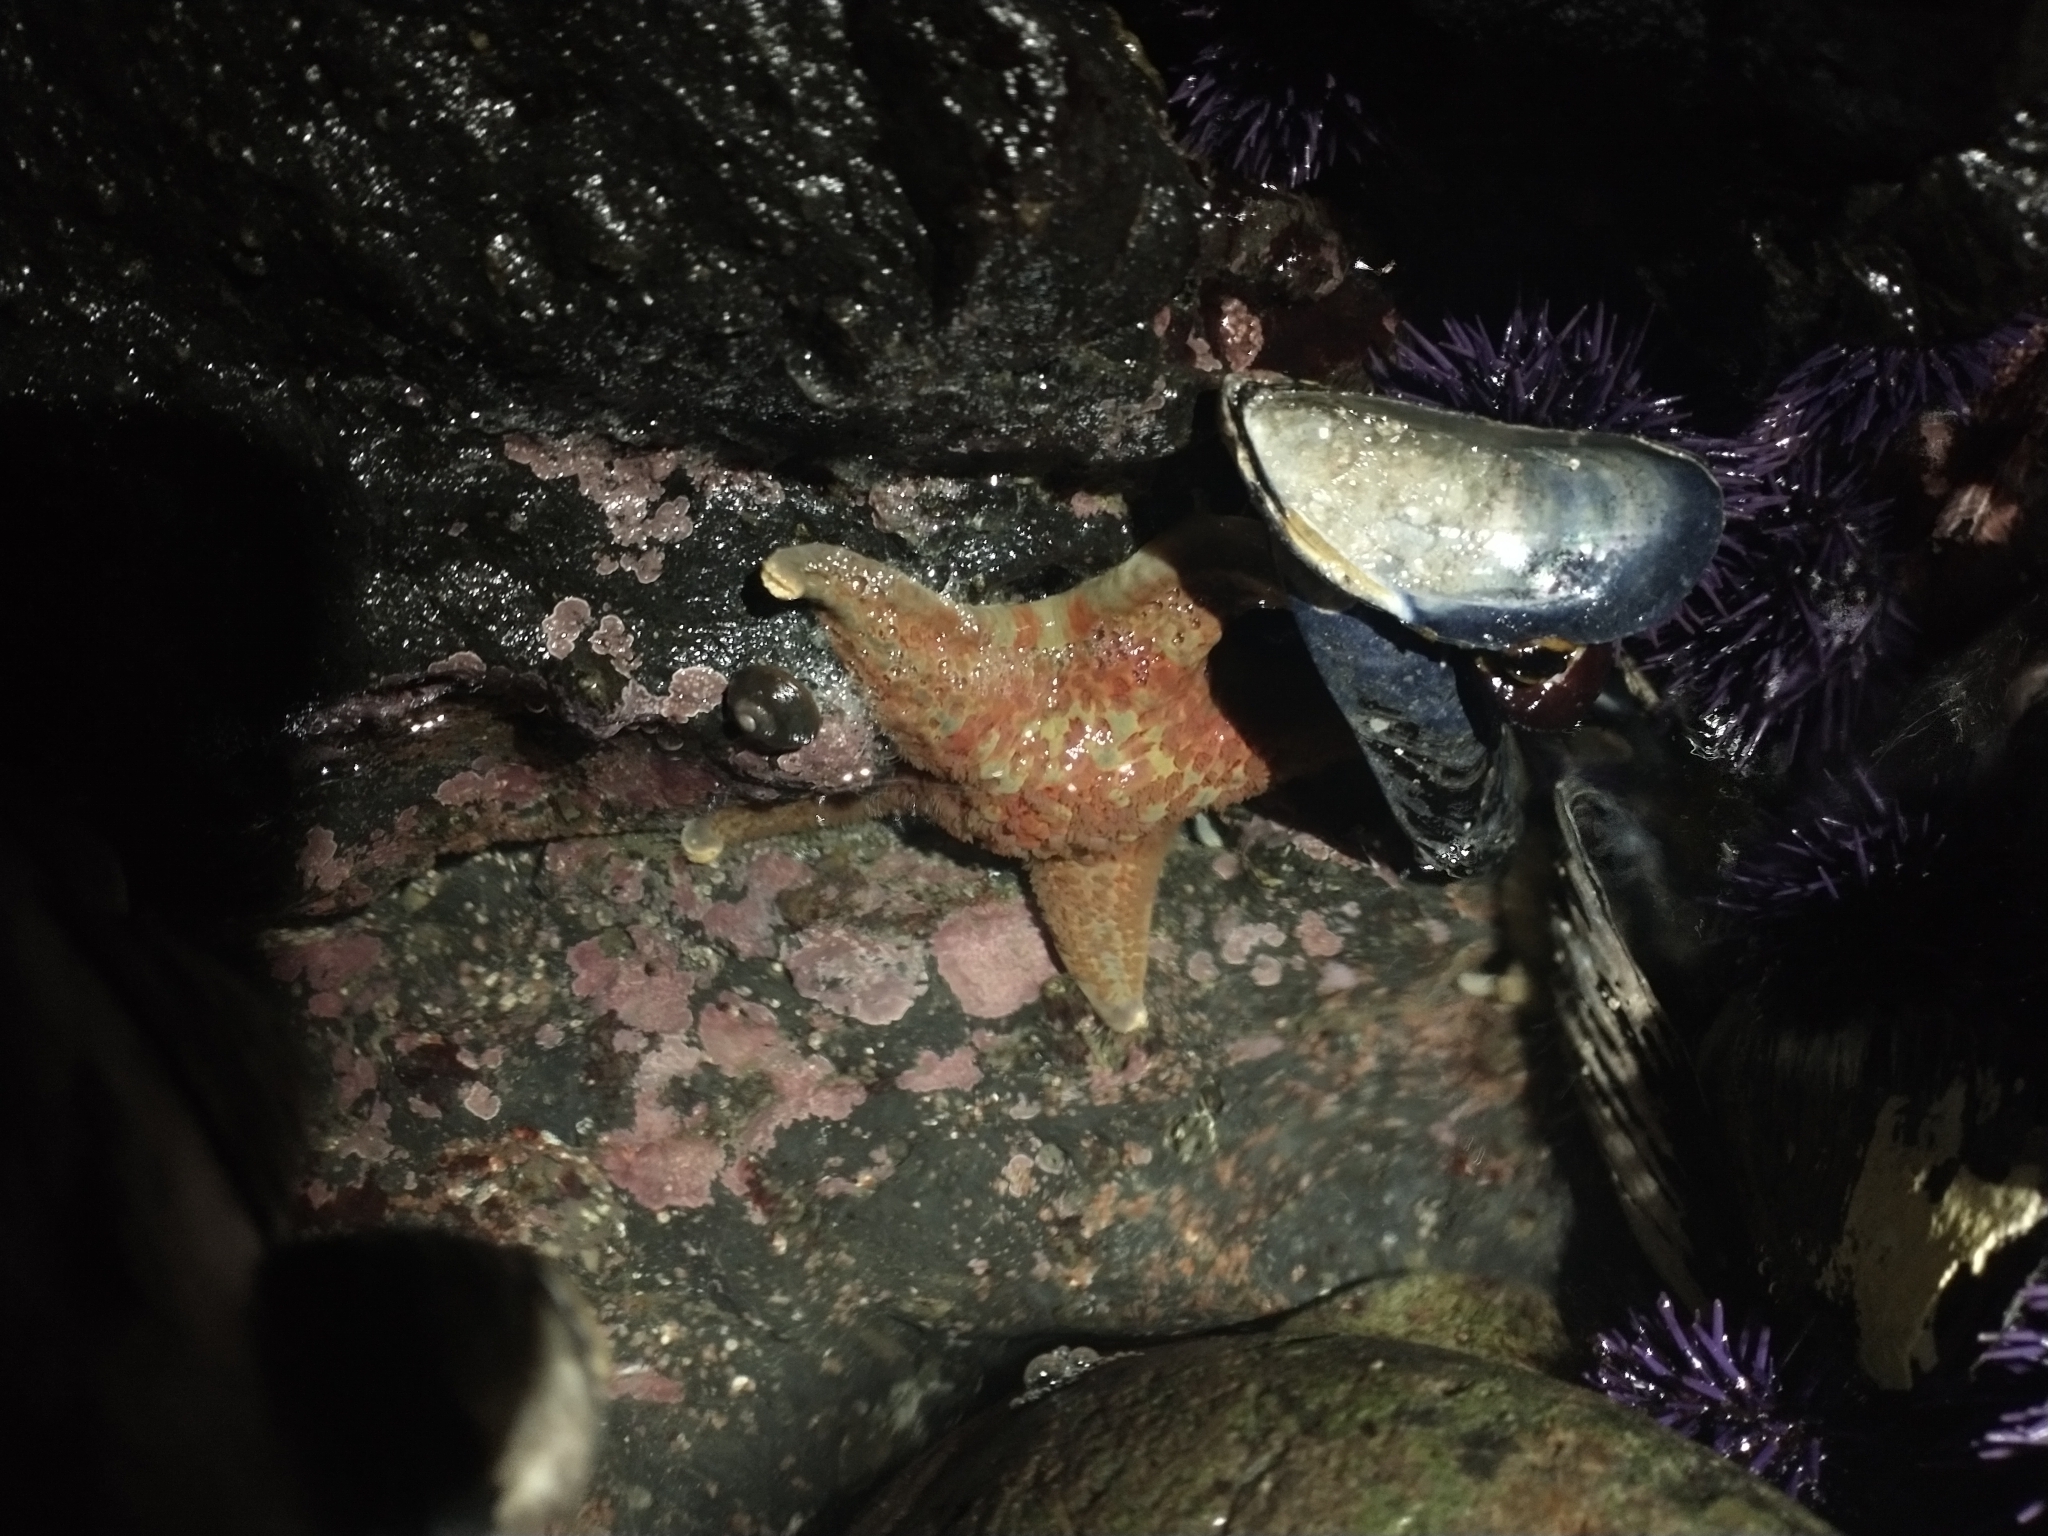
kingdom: Animalia
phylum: Echinodermata
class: Asteroidea
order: Valvatida
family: Asteropseidae
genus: Dermasterias
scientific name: Dermasterias imbricata
